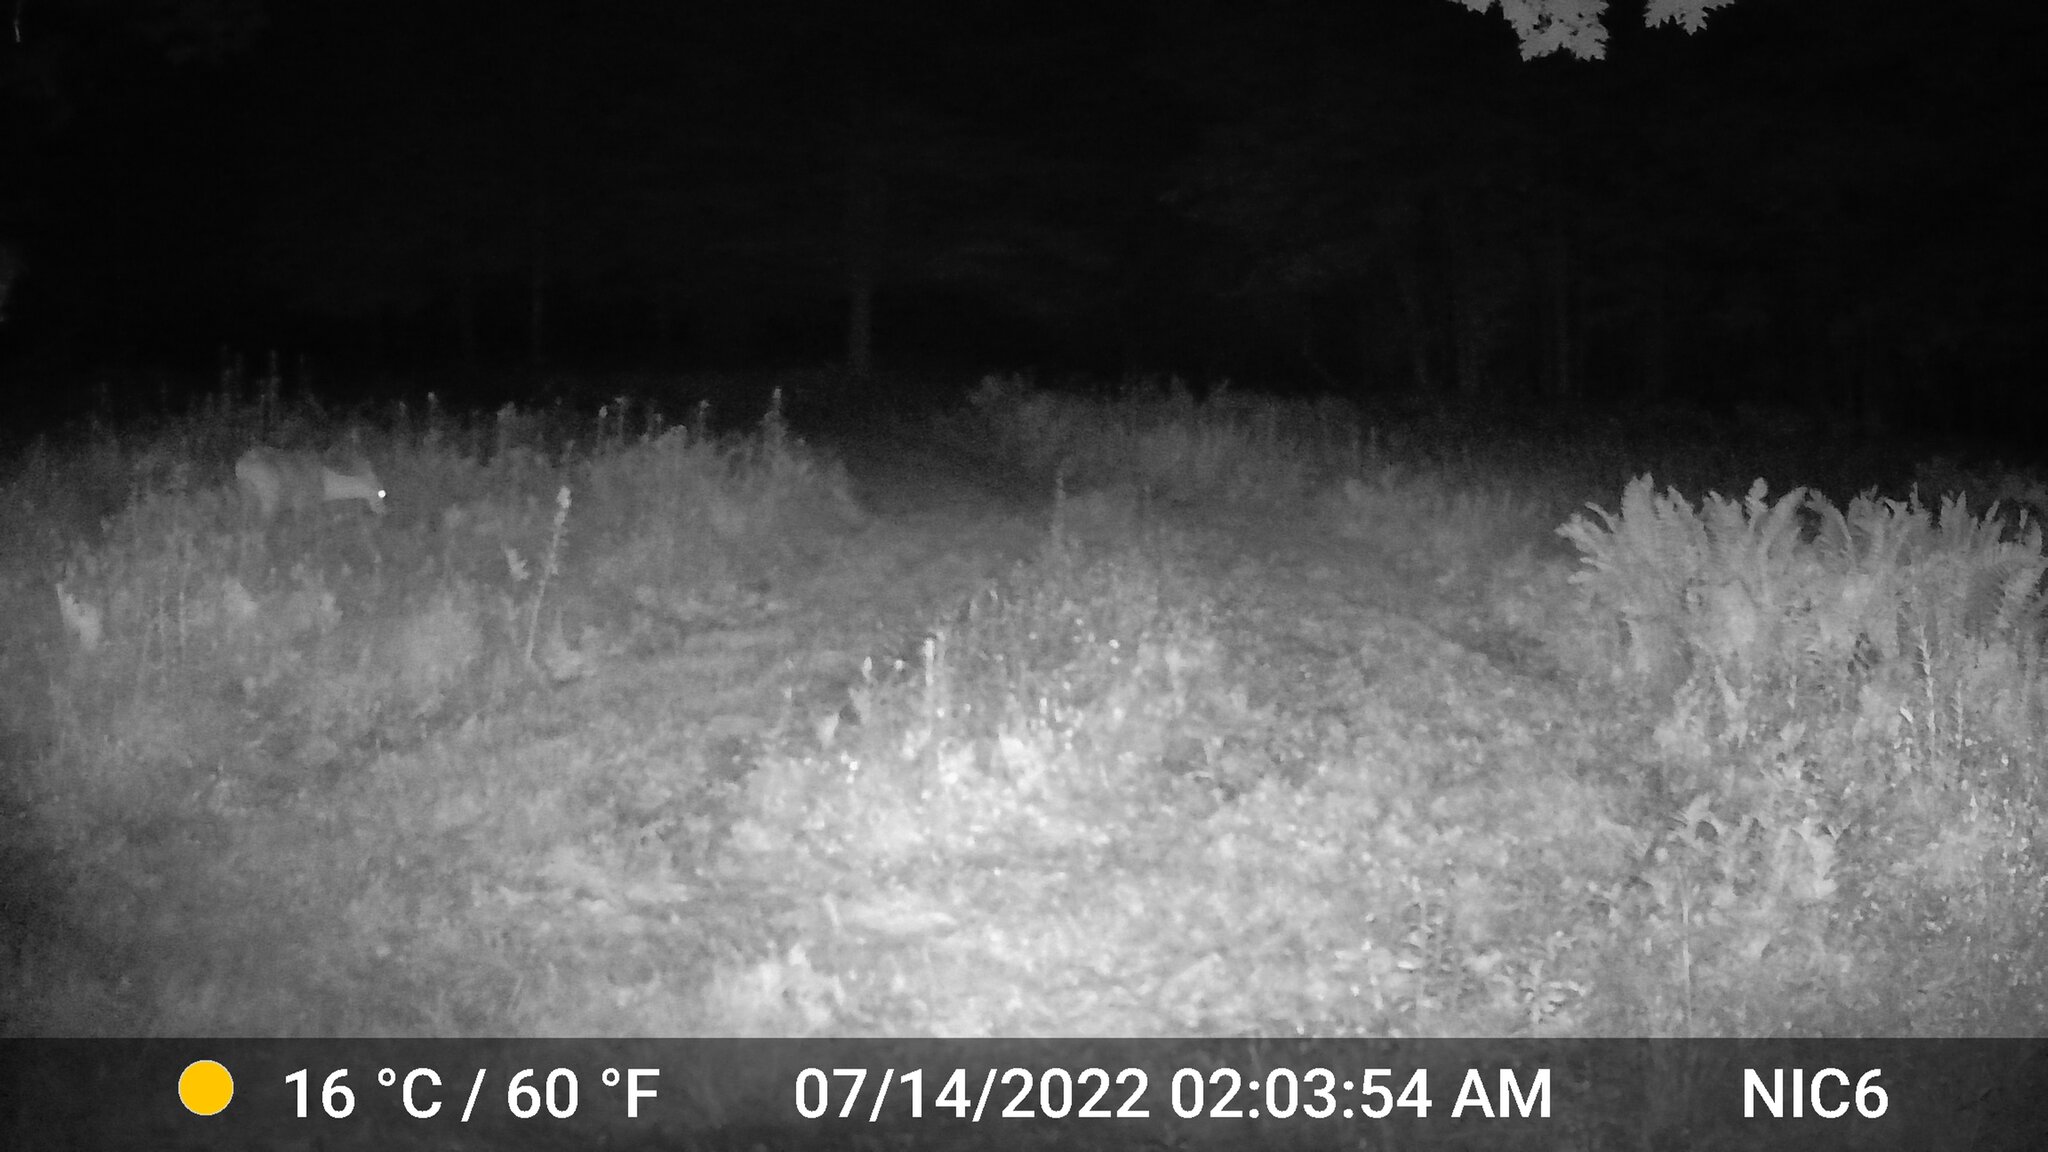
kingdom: Animalia
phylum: Chordata
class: Mammalia
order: Artiodactyla
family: Cervidae
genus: Odocoileus
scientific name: Odocoileus virginianus
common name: White-tailed deer
